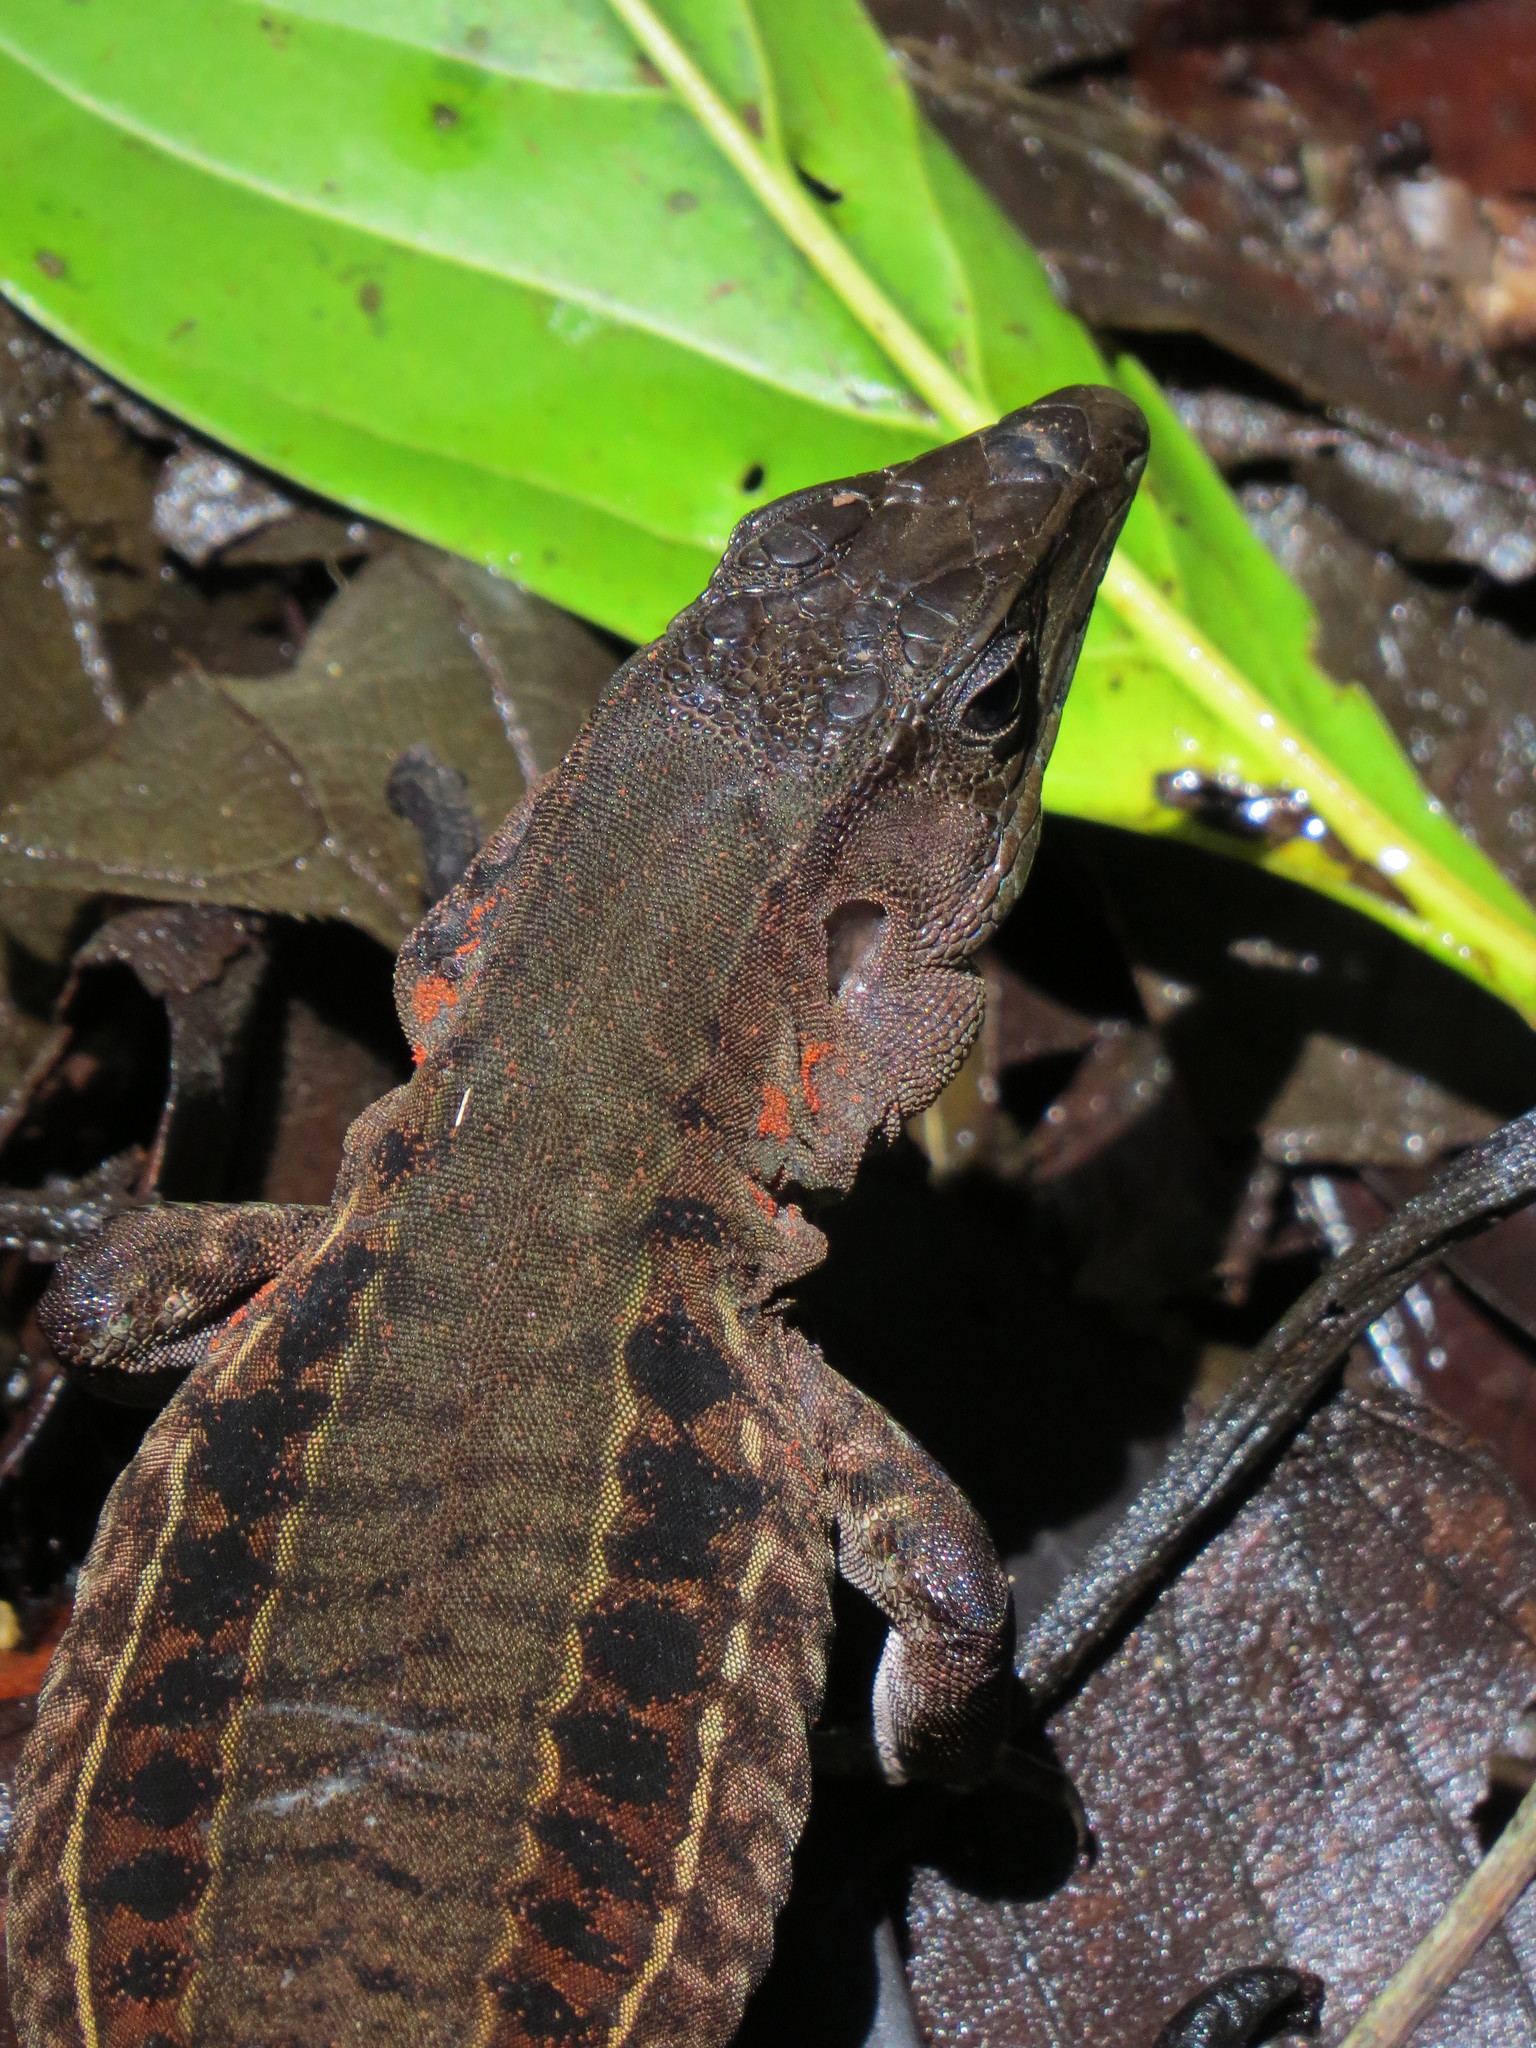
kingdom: Animalia
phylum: Chordata
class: Squamata
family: Teiidae
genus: Holcosus
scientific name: Holcosus leptophrys
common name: Delicate ameiva
